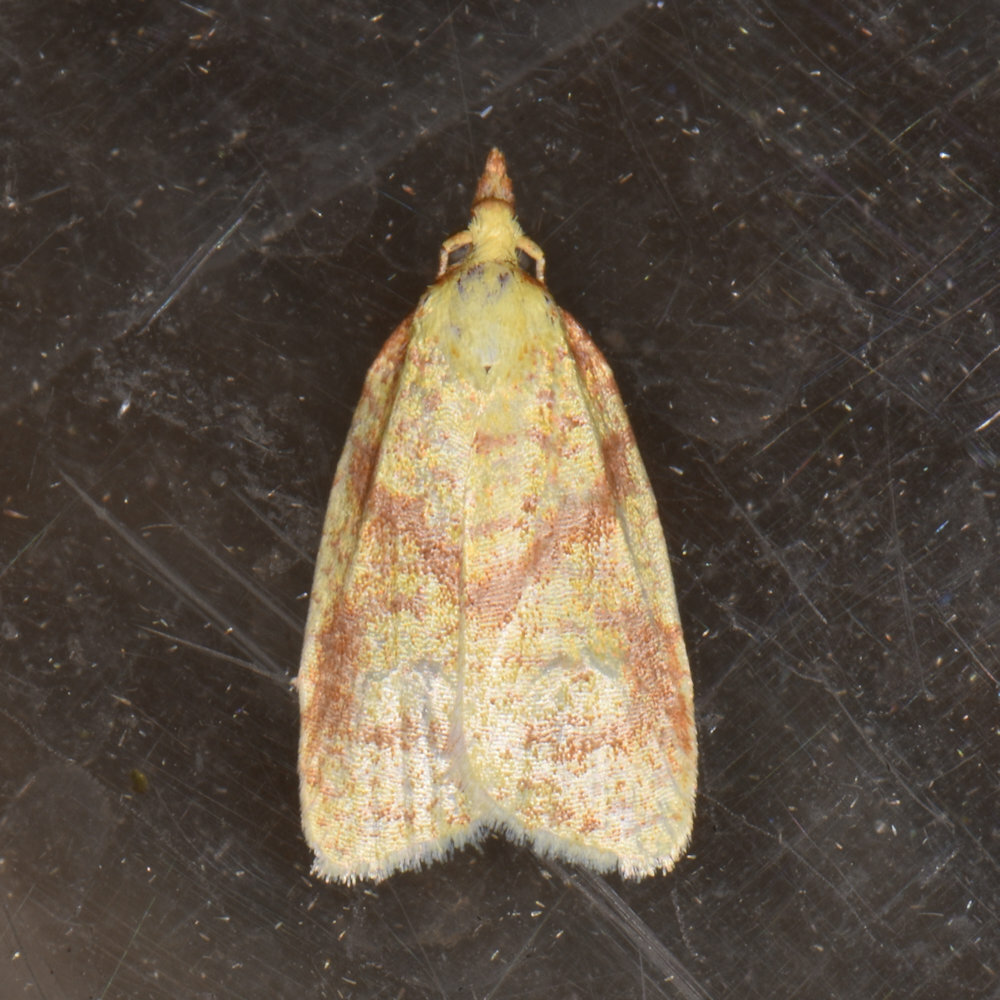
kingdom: Animalia
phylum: Arthropoda
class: Insecta
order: Lepidoptera
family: Tortricidae
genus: Cenopis
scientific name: Cenopis pettitana
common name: Maple-basswood leafroller moth
